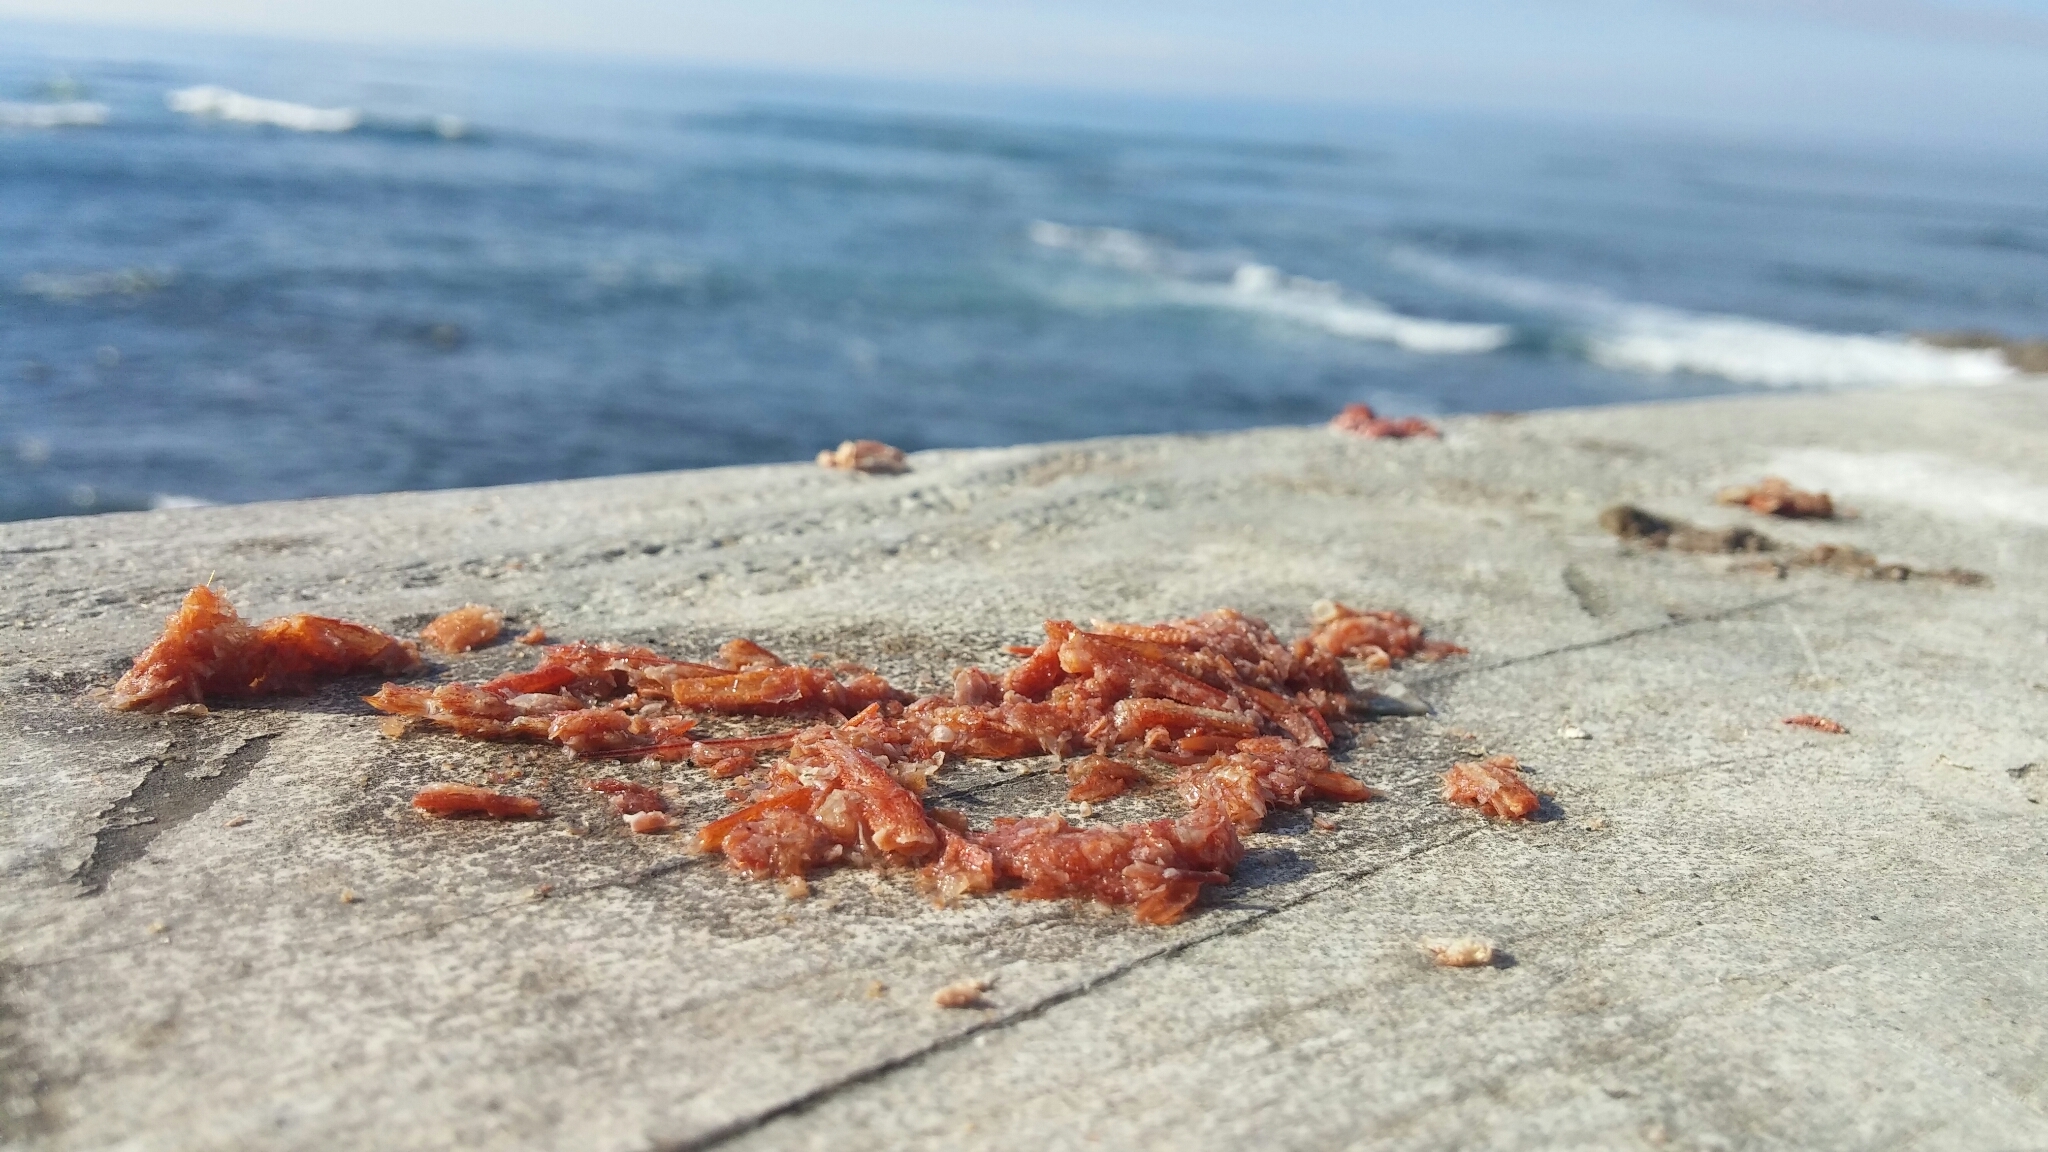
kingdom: Animalia
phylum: Arthropoda
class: Malacostraca
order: Decapoda
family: Munididae
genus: Grimothea
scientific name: Grimothea planipes
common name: Pelagic red crab
